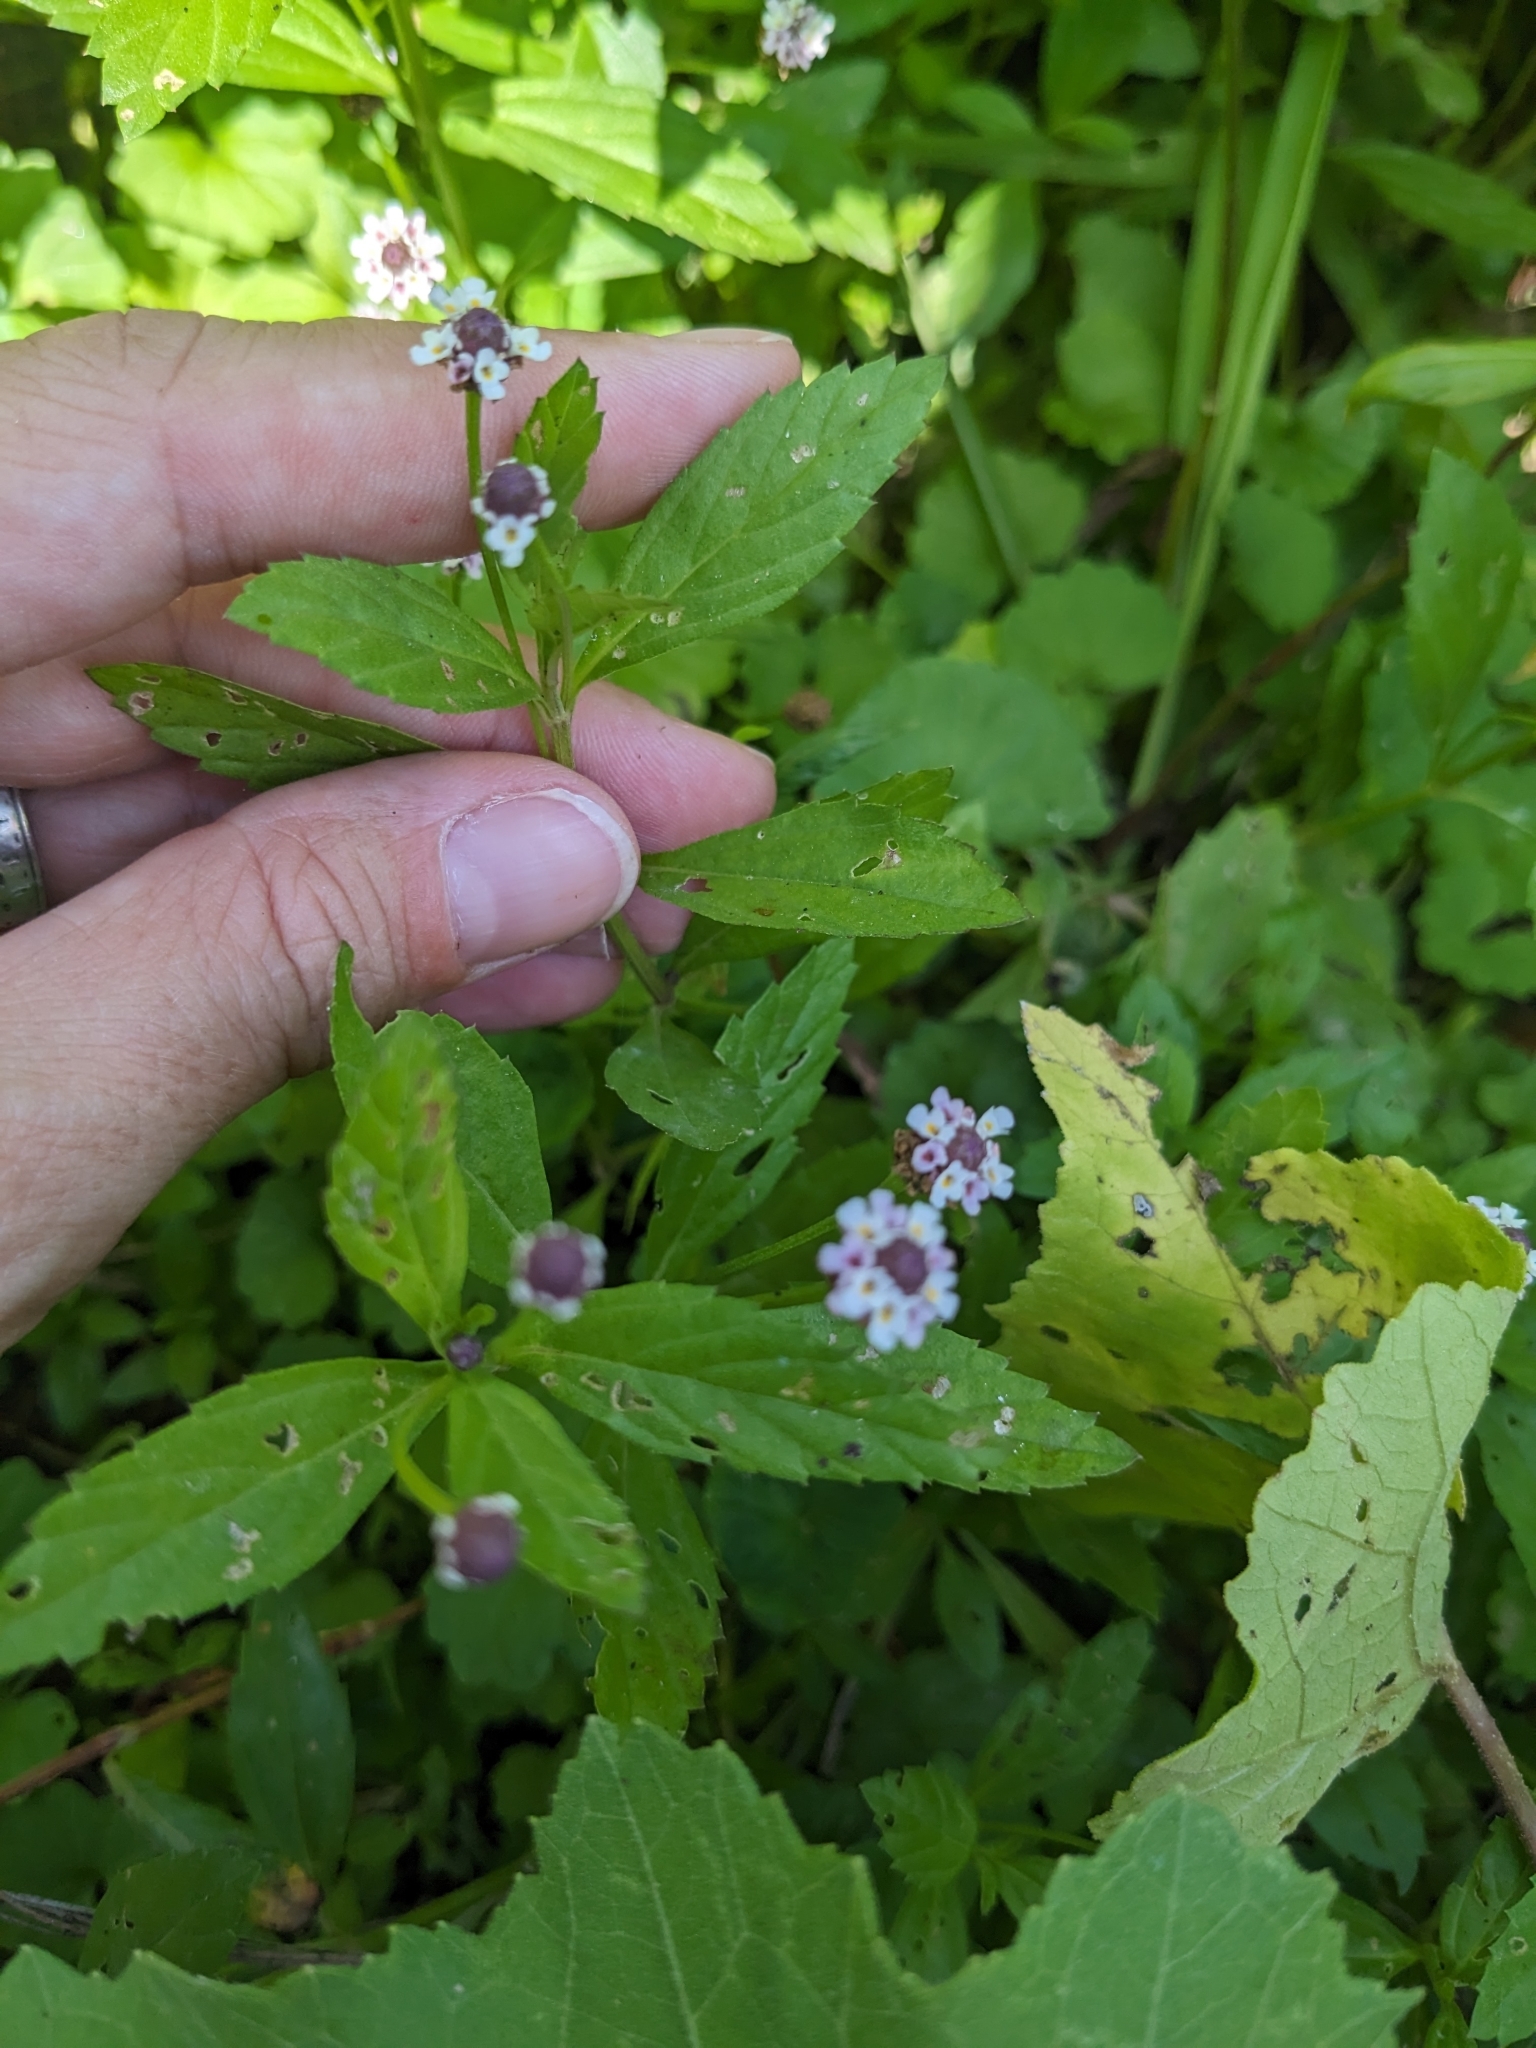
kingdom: Plantae
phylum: Tracheophyta
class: Magnoliopsida
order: Lamiales
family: Verbenaceae
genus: Phyla
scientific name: Phyla lanceolata
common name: Northern fogfruit
